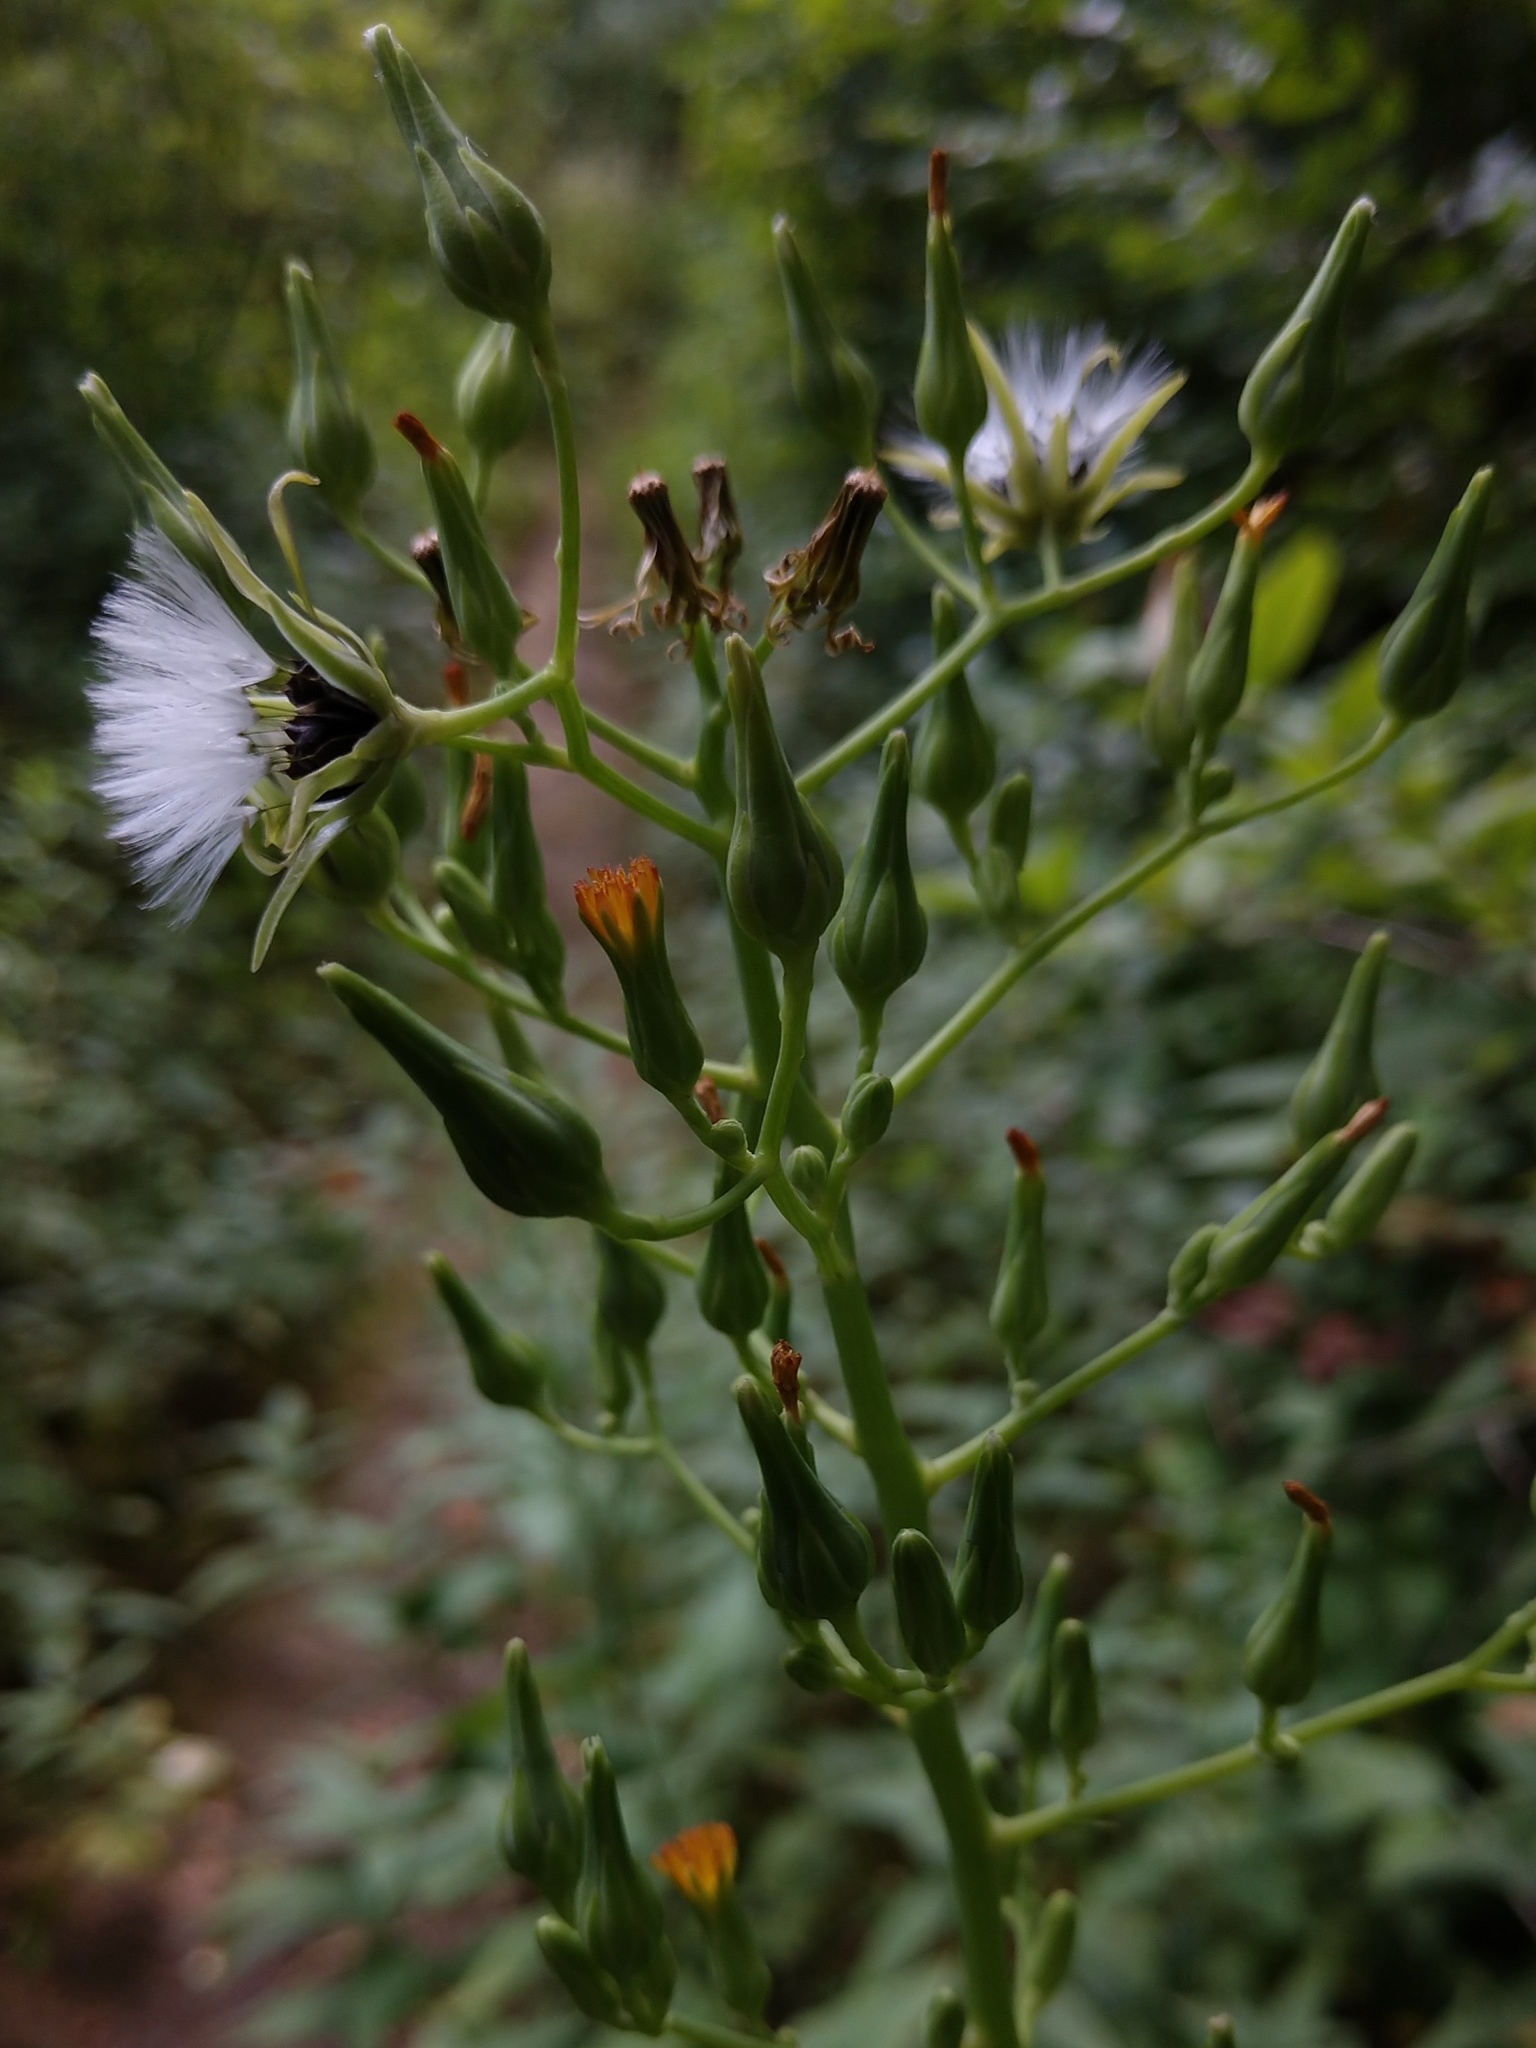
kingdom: Plantae
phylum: Tracheophyta
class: Magnoliopsida
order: Asterales
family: Asteraceae
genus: Lactuca
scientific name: Lactuca canadensis
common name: Canada lettuce
